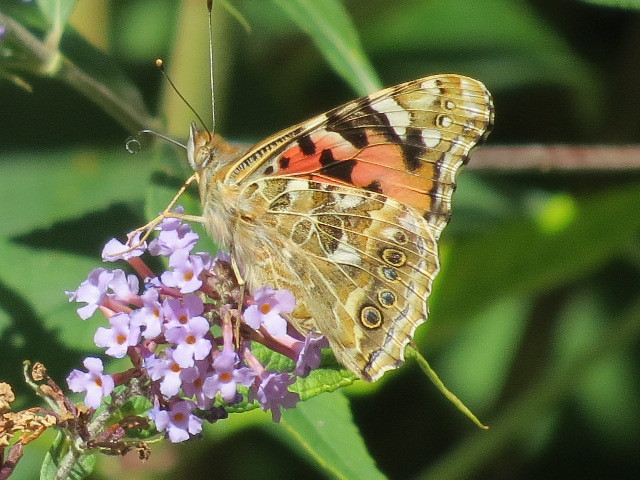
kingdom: Animalia
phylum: Arthropoda
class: Insecta
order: Lepidoptera
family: Nymphalidae
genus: Vanessa
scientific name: Vanessa cardui
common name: Painted lady
